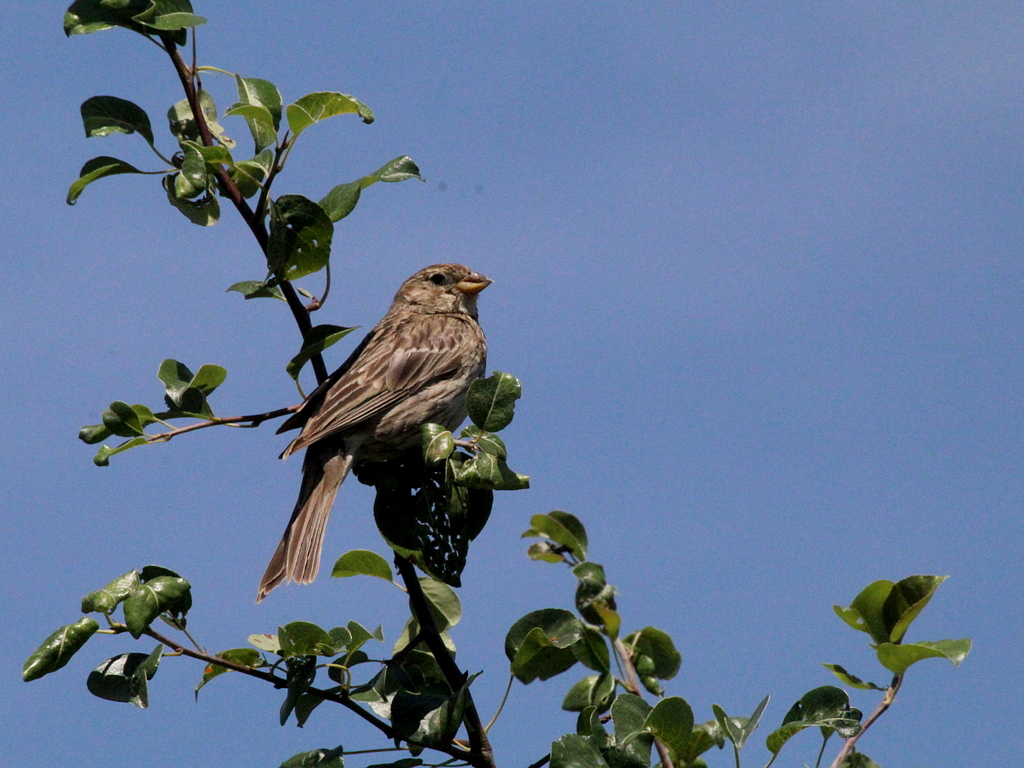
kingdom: Animalia
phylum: Chordata
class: Aves
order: Passeriformes
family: Emberizidae
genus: Emberiza
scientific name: Emberiza calandra
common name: Corn bunting
